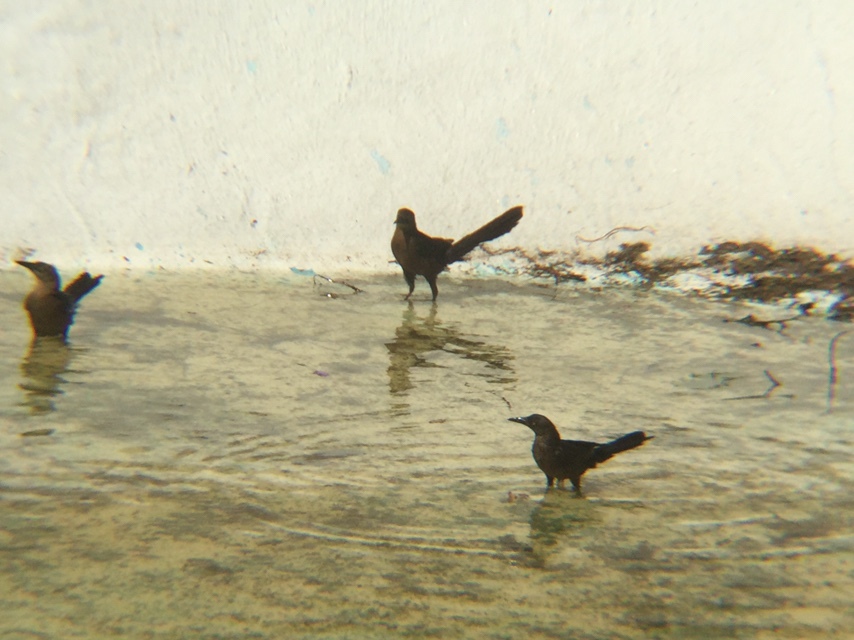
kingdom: Animalia
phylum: Chordata
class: Aves
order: Passeriformes
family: Icteridae
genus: Quiscalus
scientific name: Quiscalus mexicanus
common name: Great-tailed grackle
